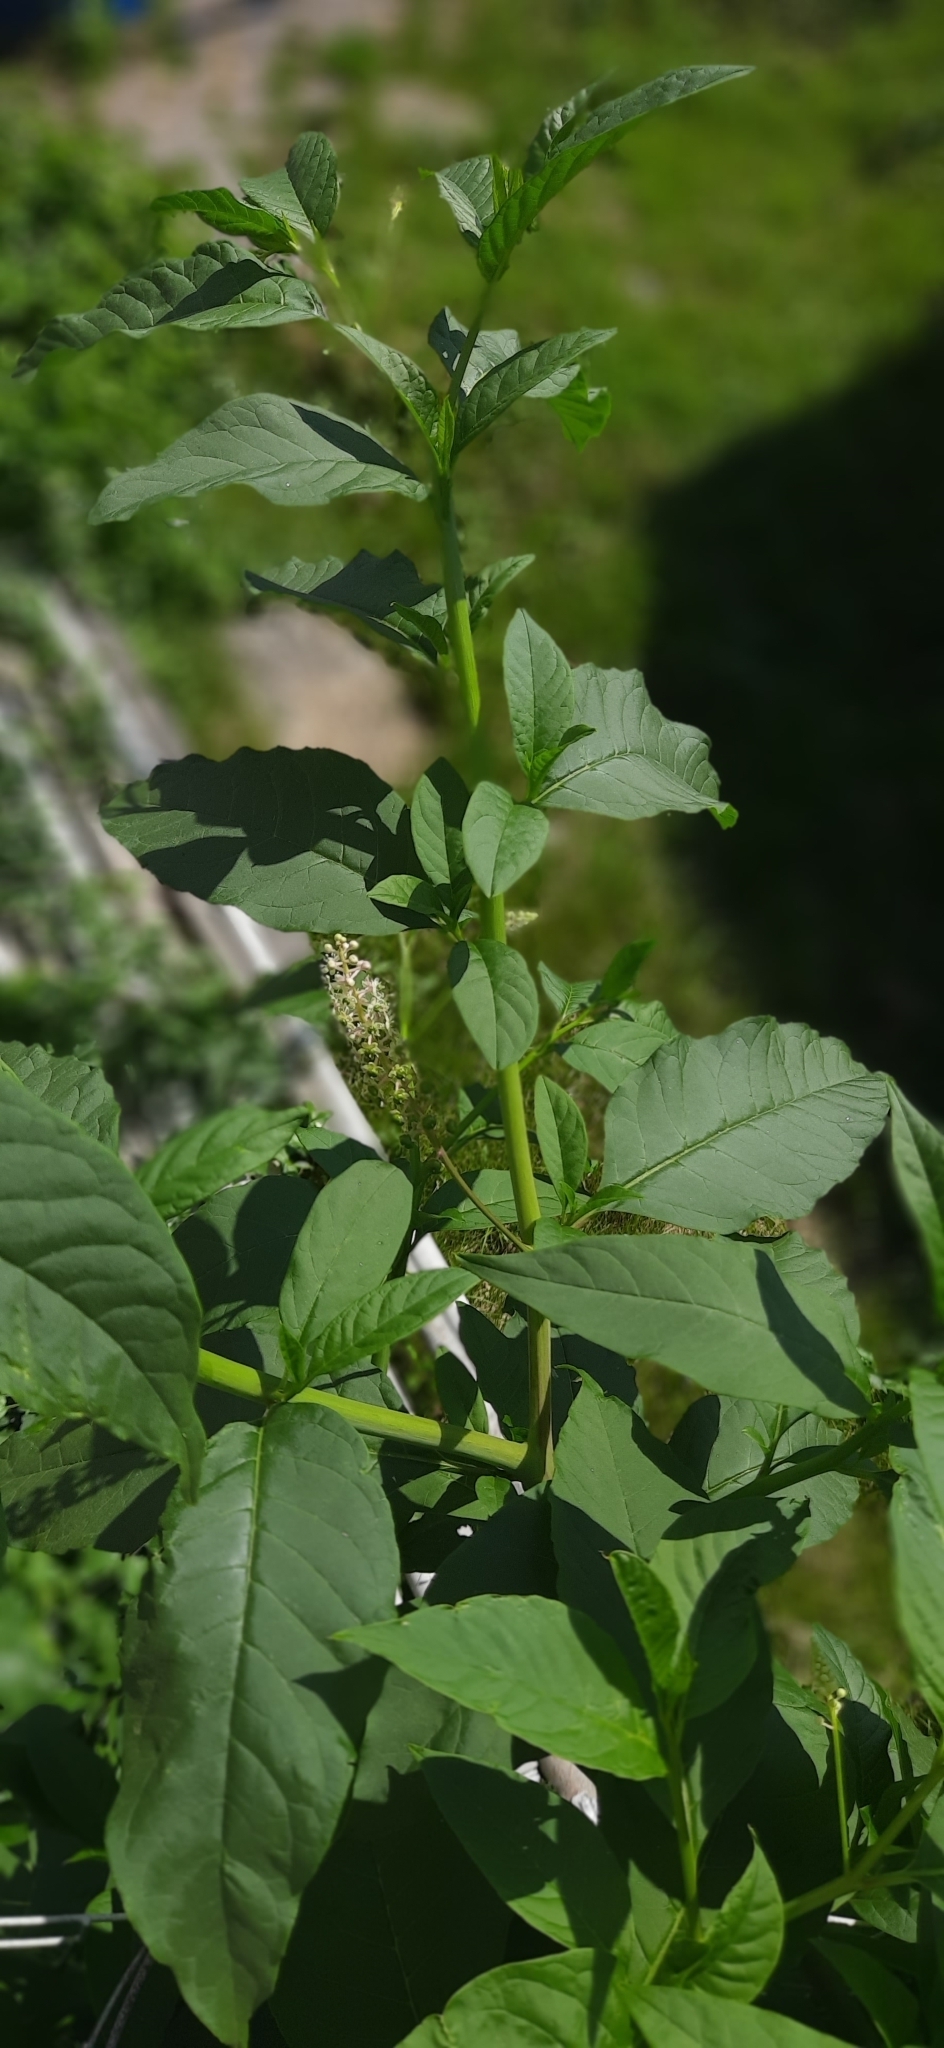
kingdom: Plantae
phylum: Tracheophyta
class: Magnoliopsida
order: Caryophyllales
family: Phytolaccaceae
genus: Phytolacca
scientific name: Phytolacca americana
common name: American pokeweed
